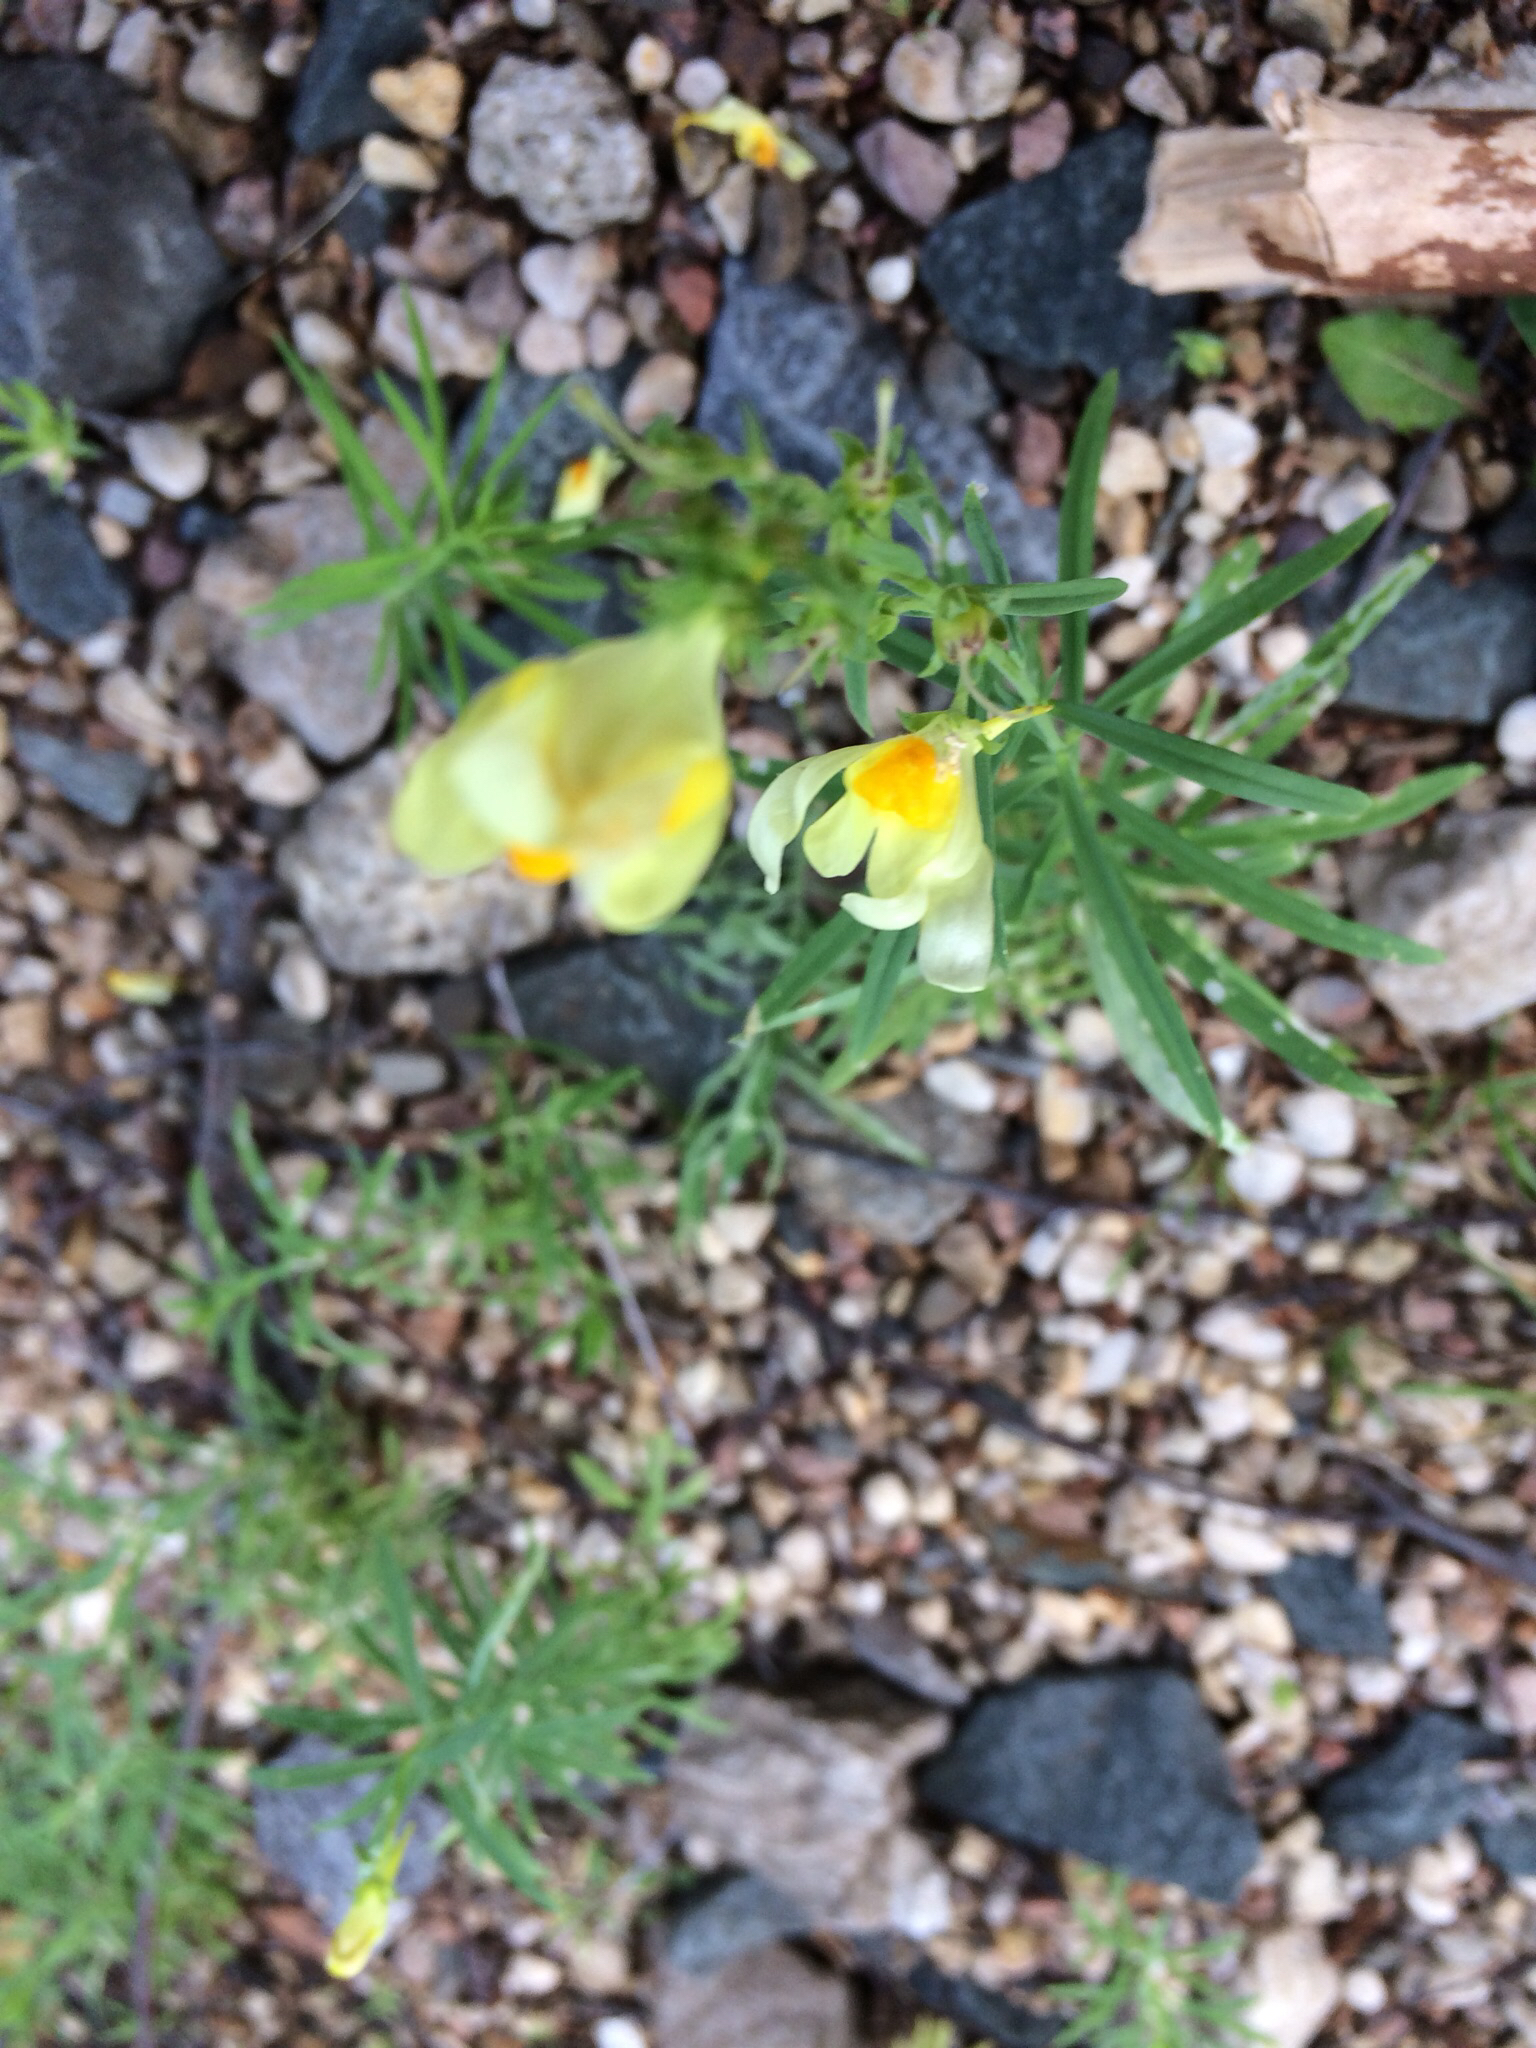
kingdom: Plantae
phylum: Tracheophyta
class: Magnoliopsida
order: Lamiales
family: Plantaginaceae
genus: Linaria
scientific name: Linaria vulgaris
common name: Butter and eggs
